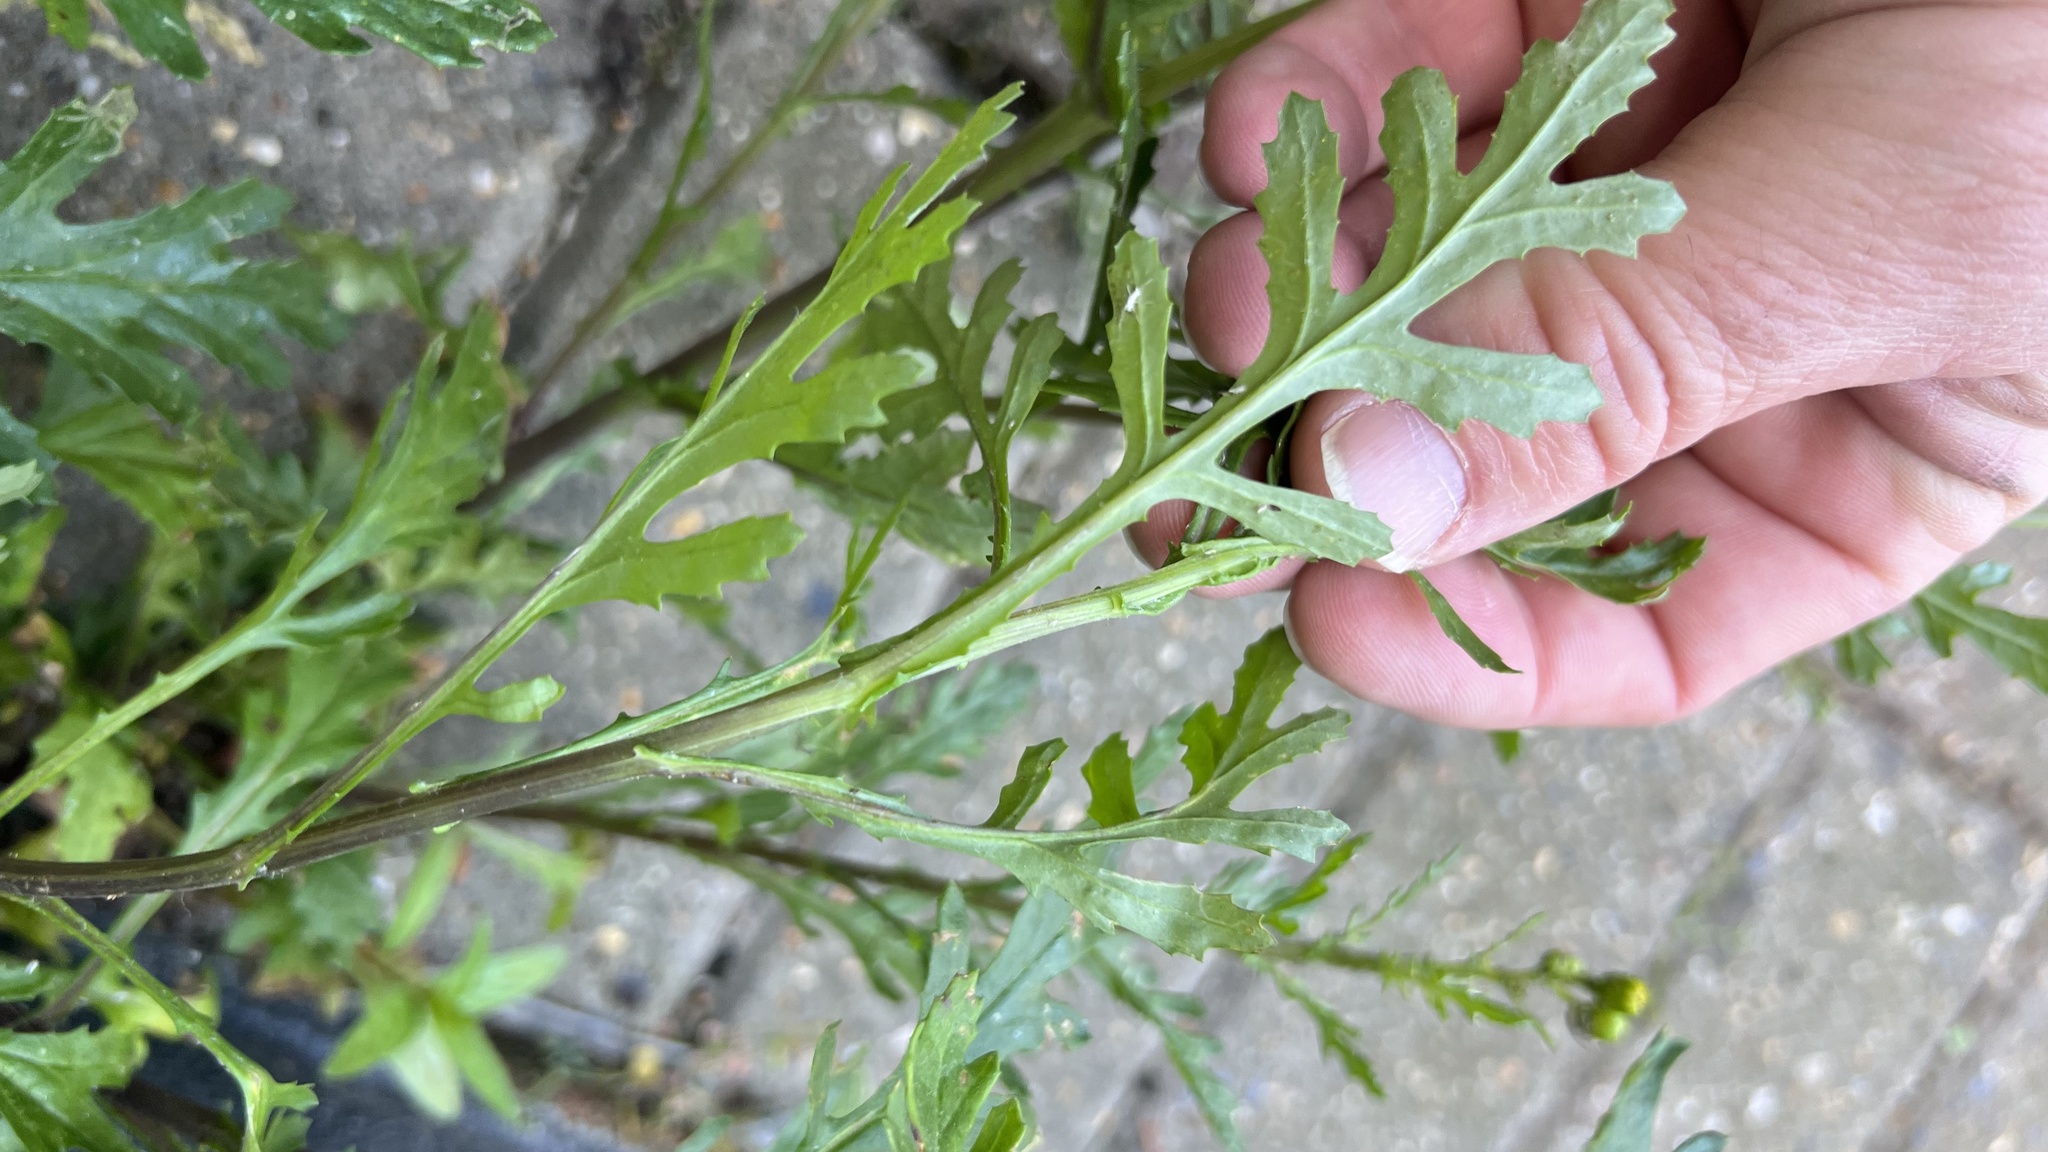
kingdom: Plantae
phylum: Tracheophyta
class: Magnoliopsida
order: Asterales
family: Asteraceae
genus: Senecio
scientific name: Senecio squalidus
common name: Oxford ragwort
